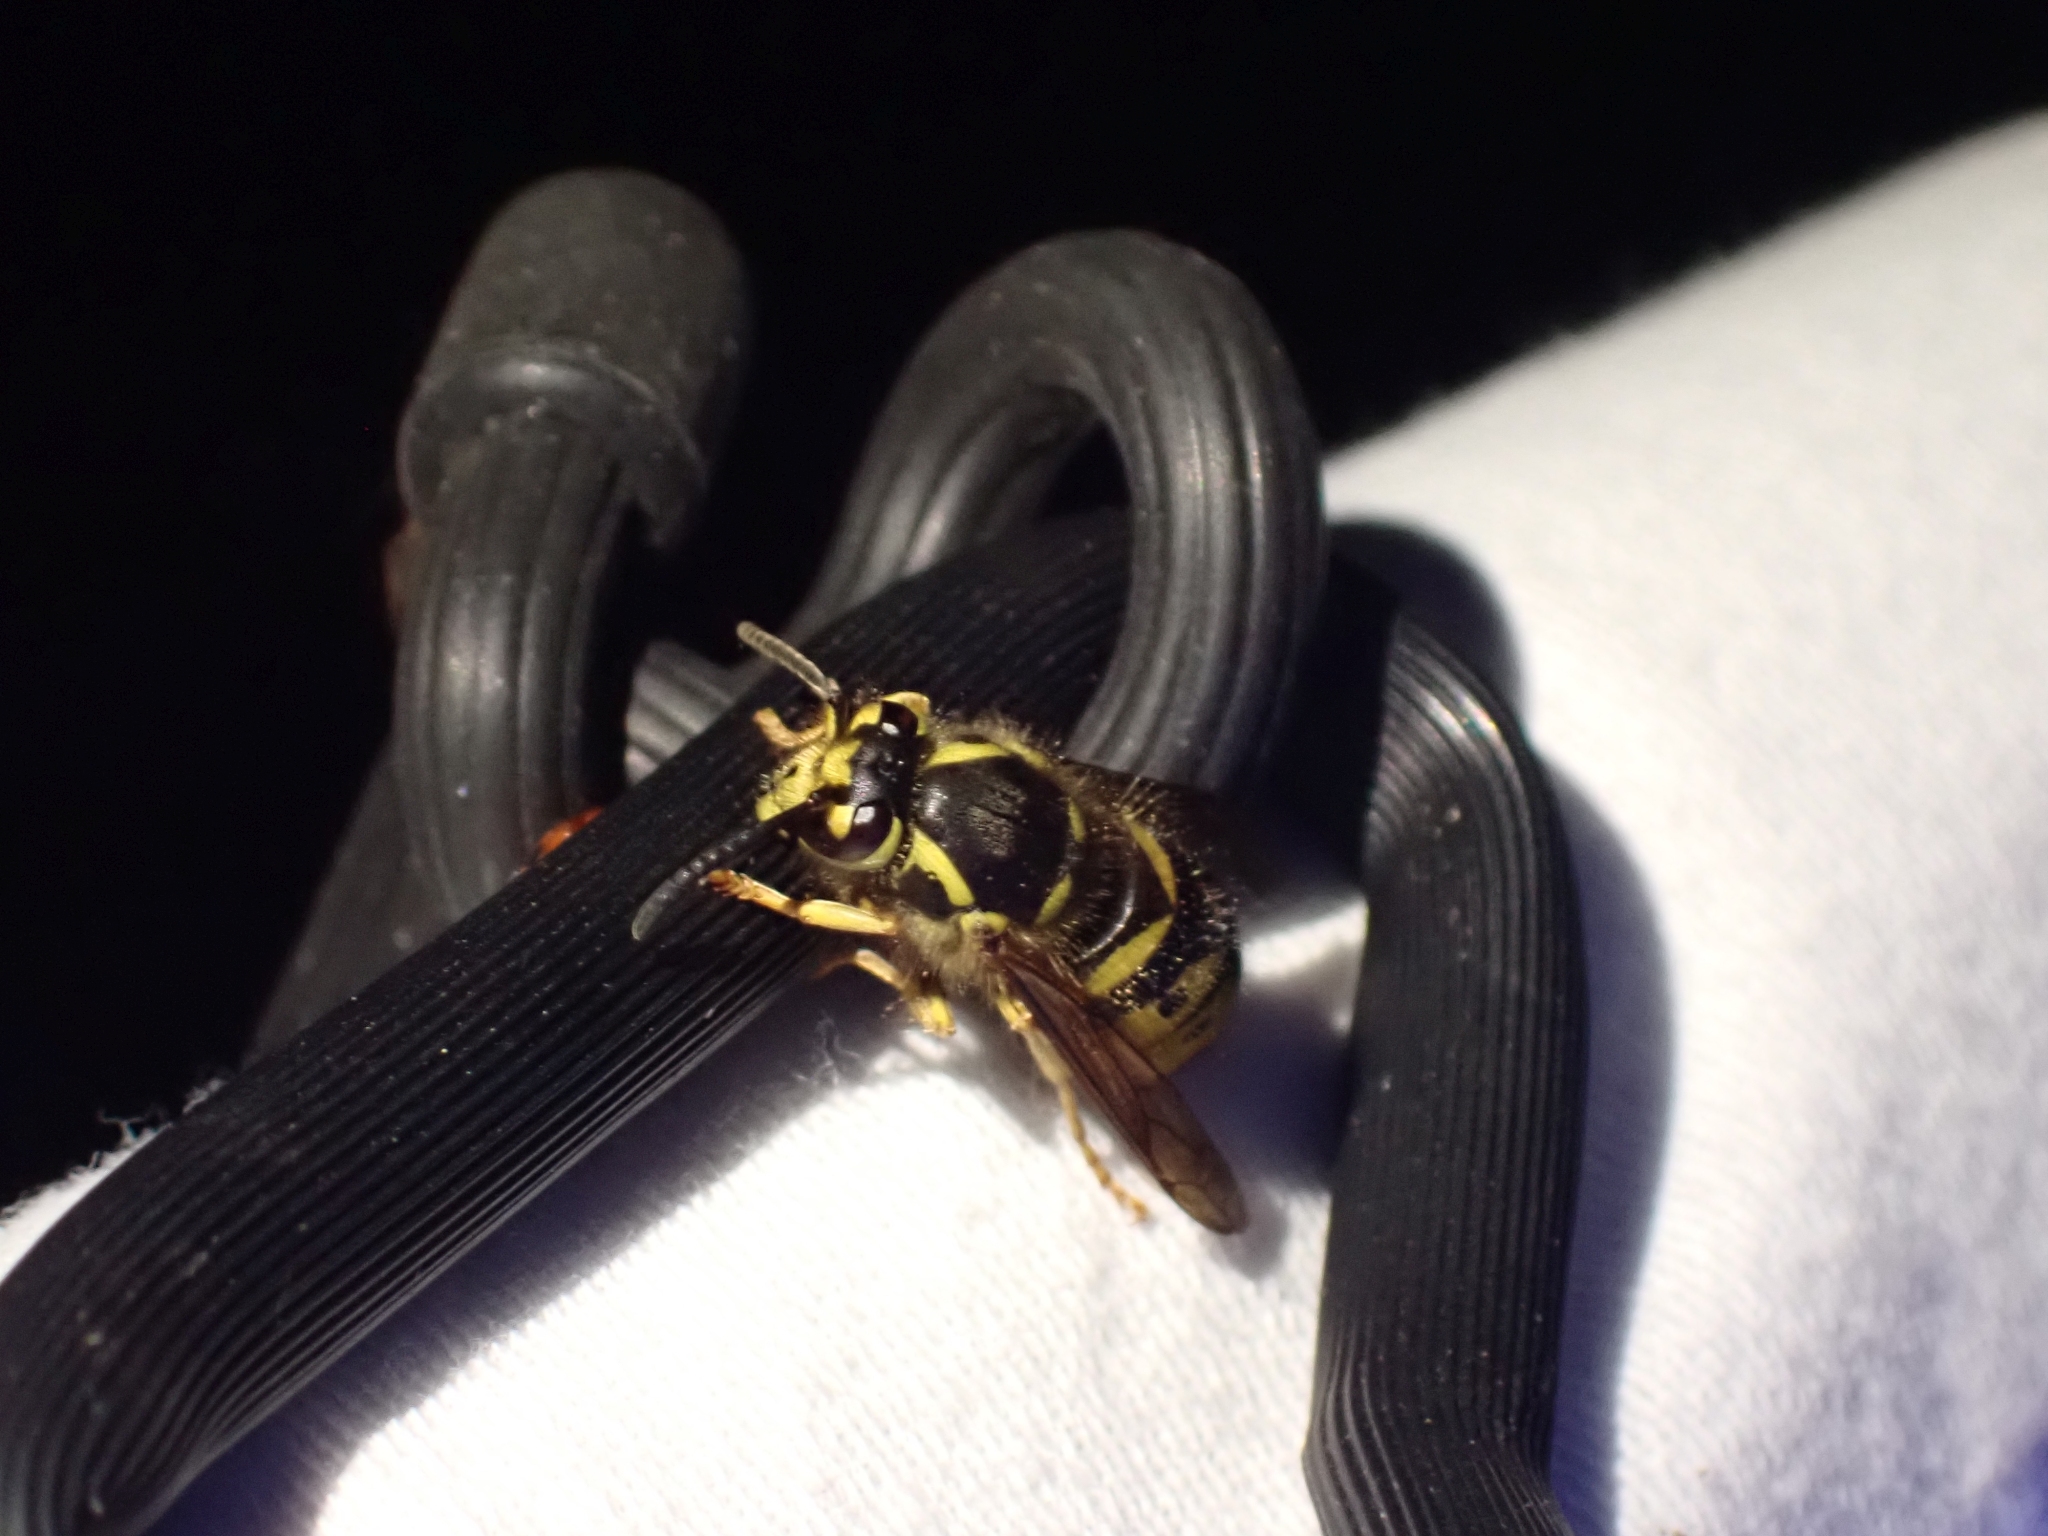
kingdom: Animalia
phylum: Arthropoda
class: Insecta
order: Hymenoptera
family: Vespidae
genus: Dolichovespula
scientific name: Dolichovespula arenaria
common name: Aerial yellowjacket
